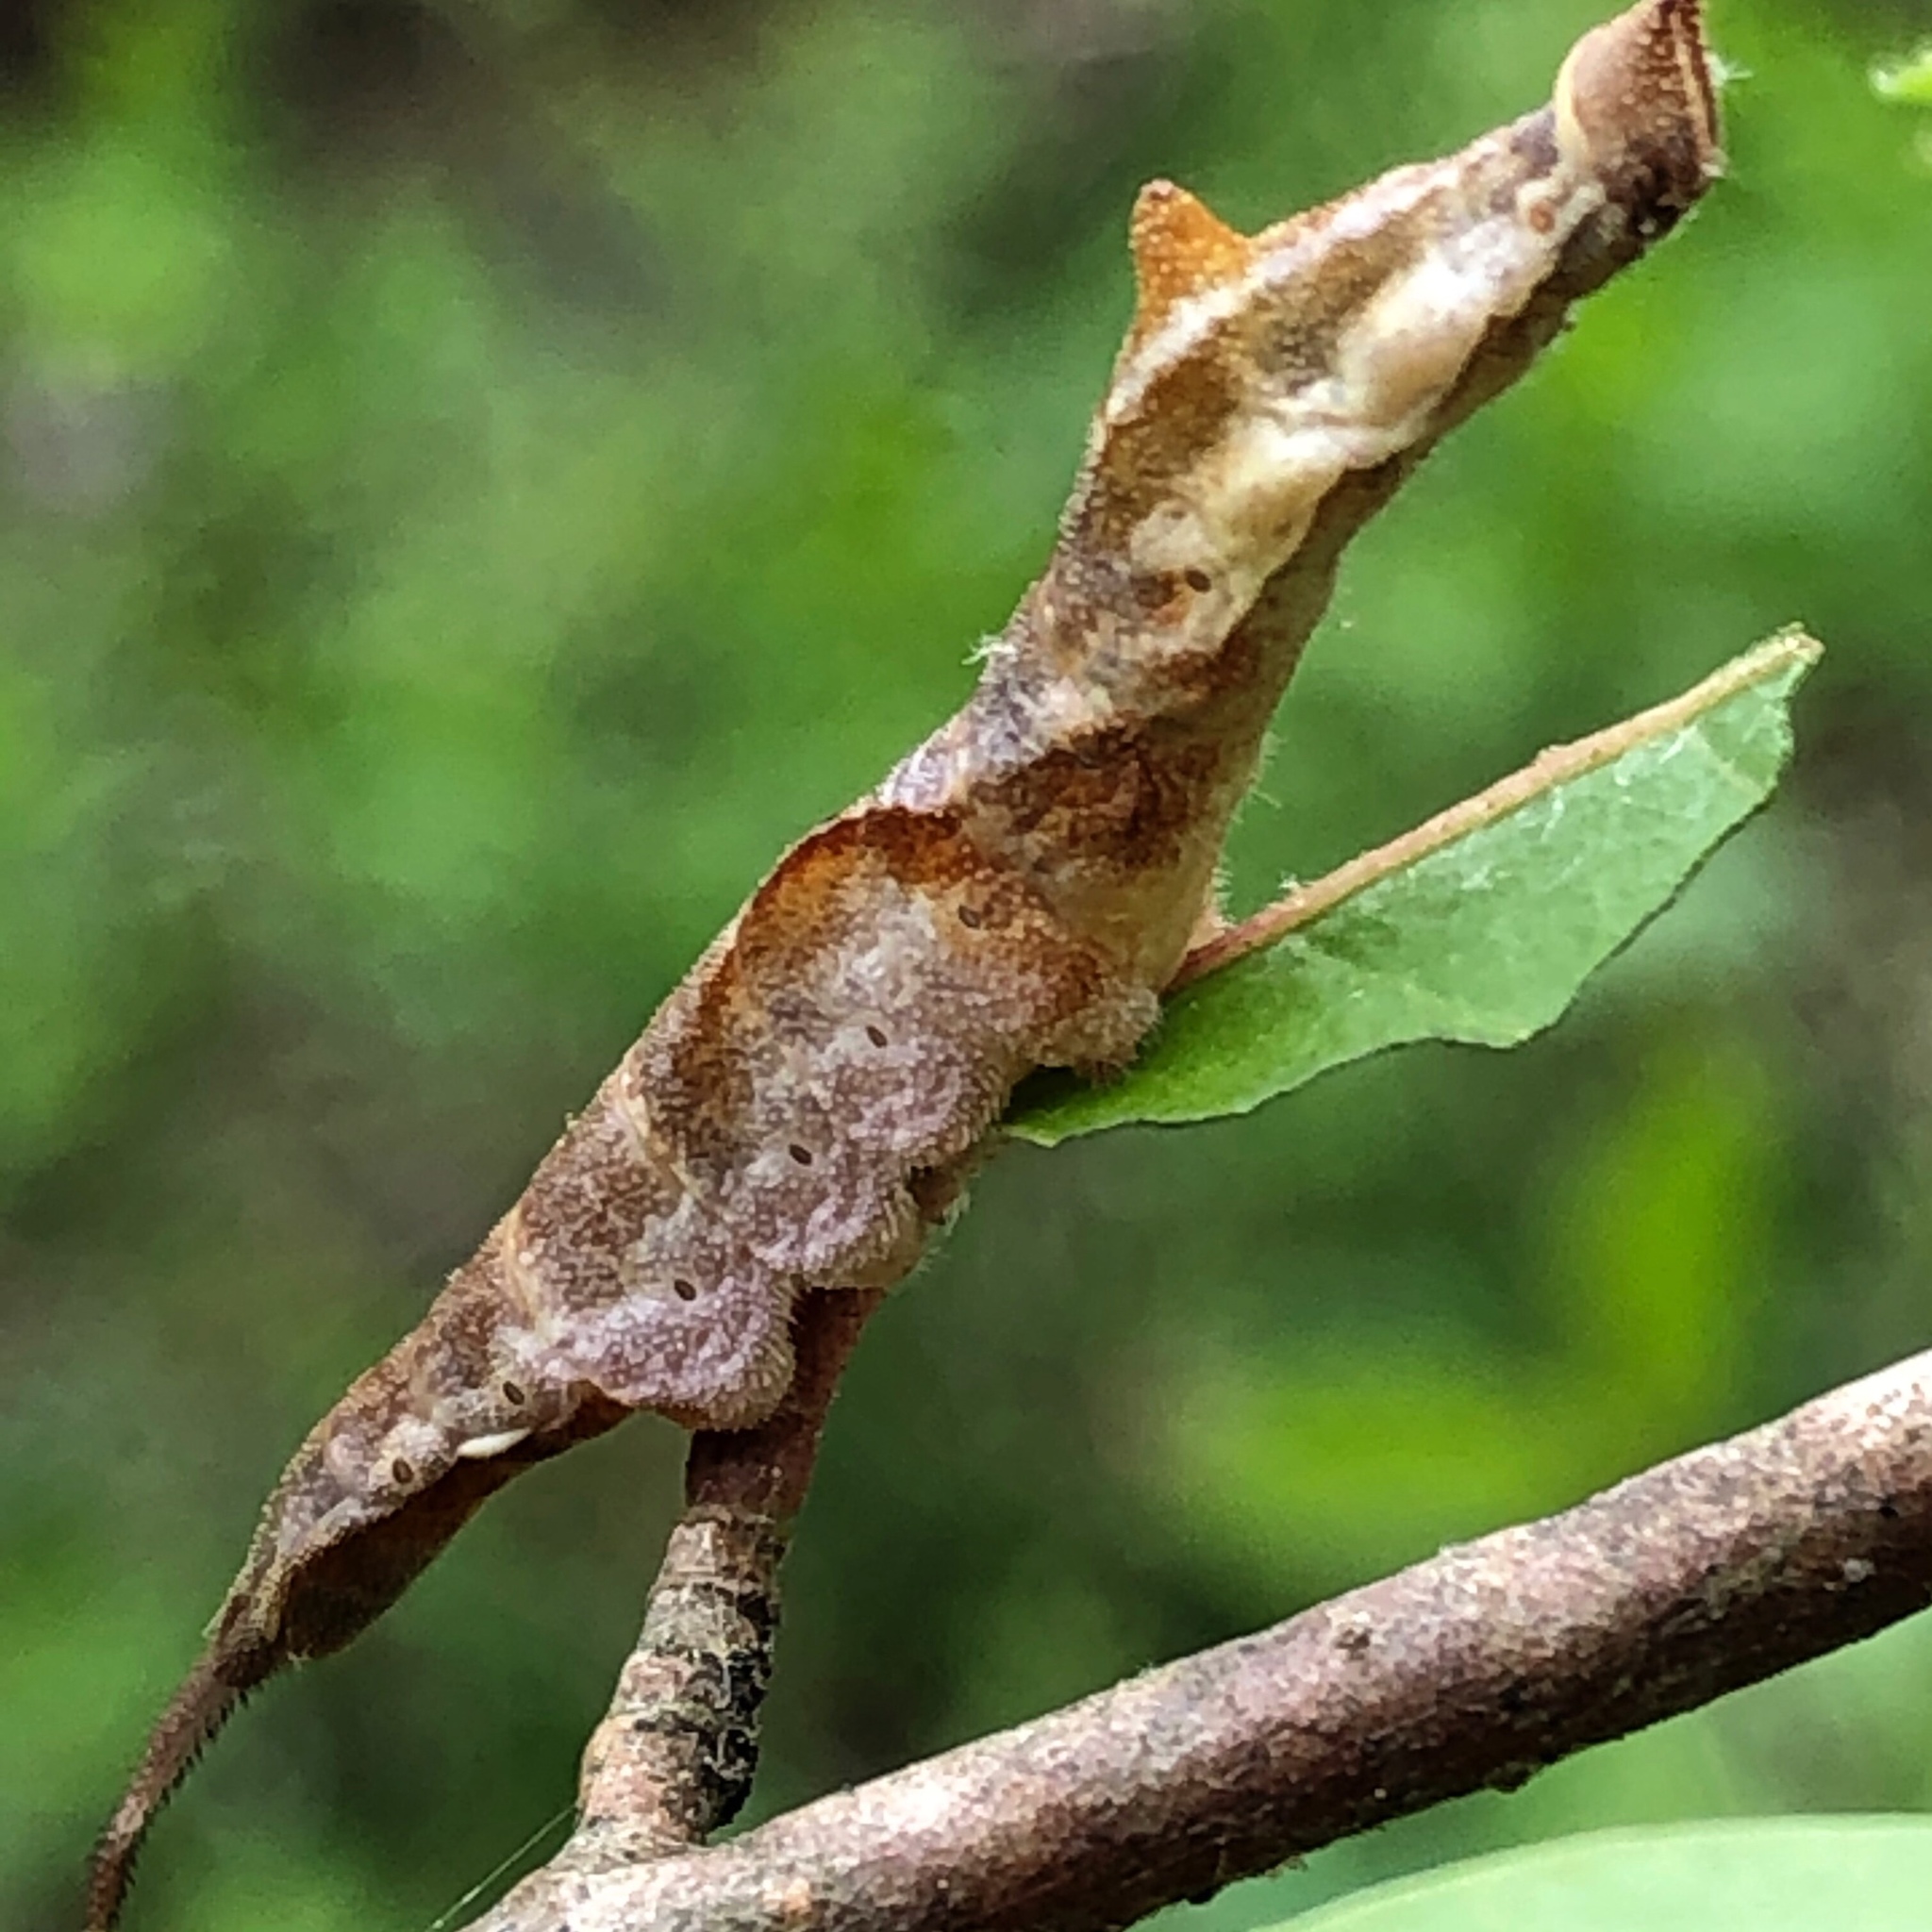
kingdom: Animalia
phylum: Arthropoda
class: Insecta
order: Lepidoptera
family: Drepanidae
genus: Oreta
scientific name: Oreta rosea
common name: Rose hooktip
